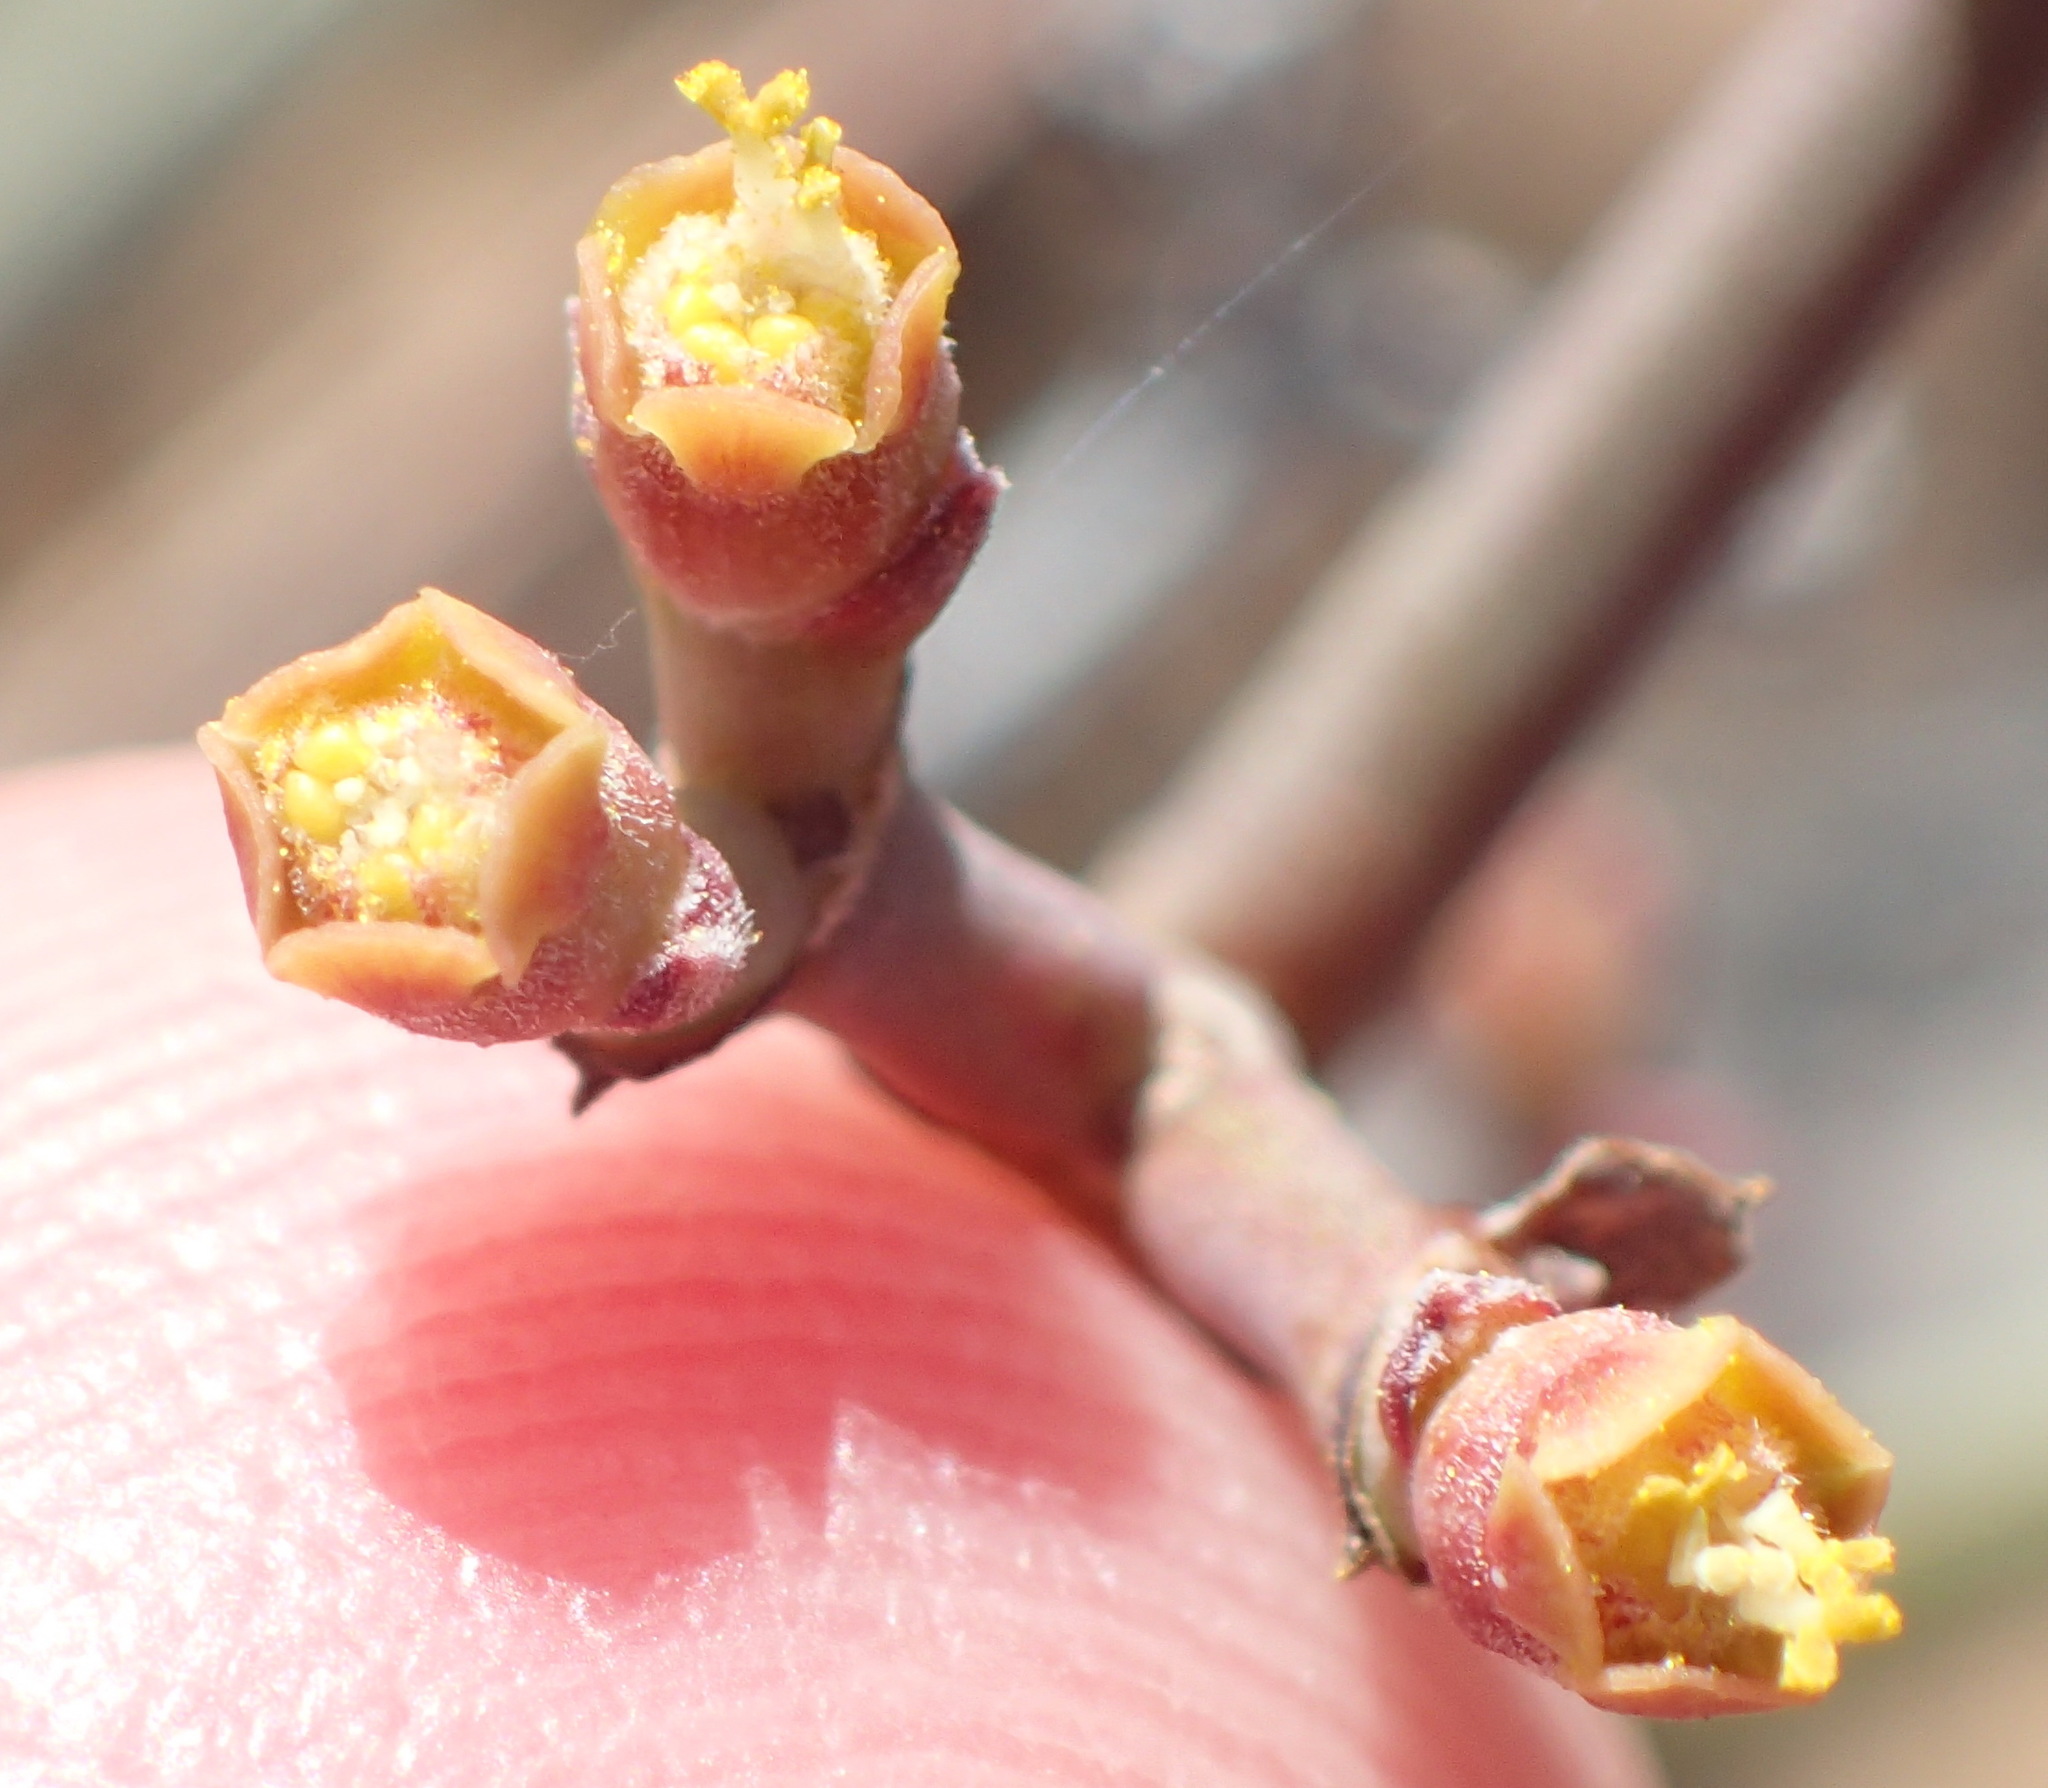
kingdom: Plantae
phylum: Tracheophyta
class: Magnoliopsida
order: Malpighiales
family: Euphorbiaceae
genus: Euphorbia
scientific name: Euphorbia caterviflora
